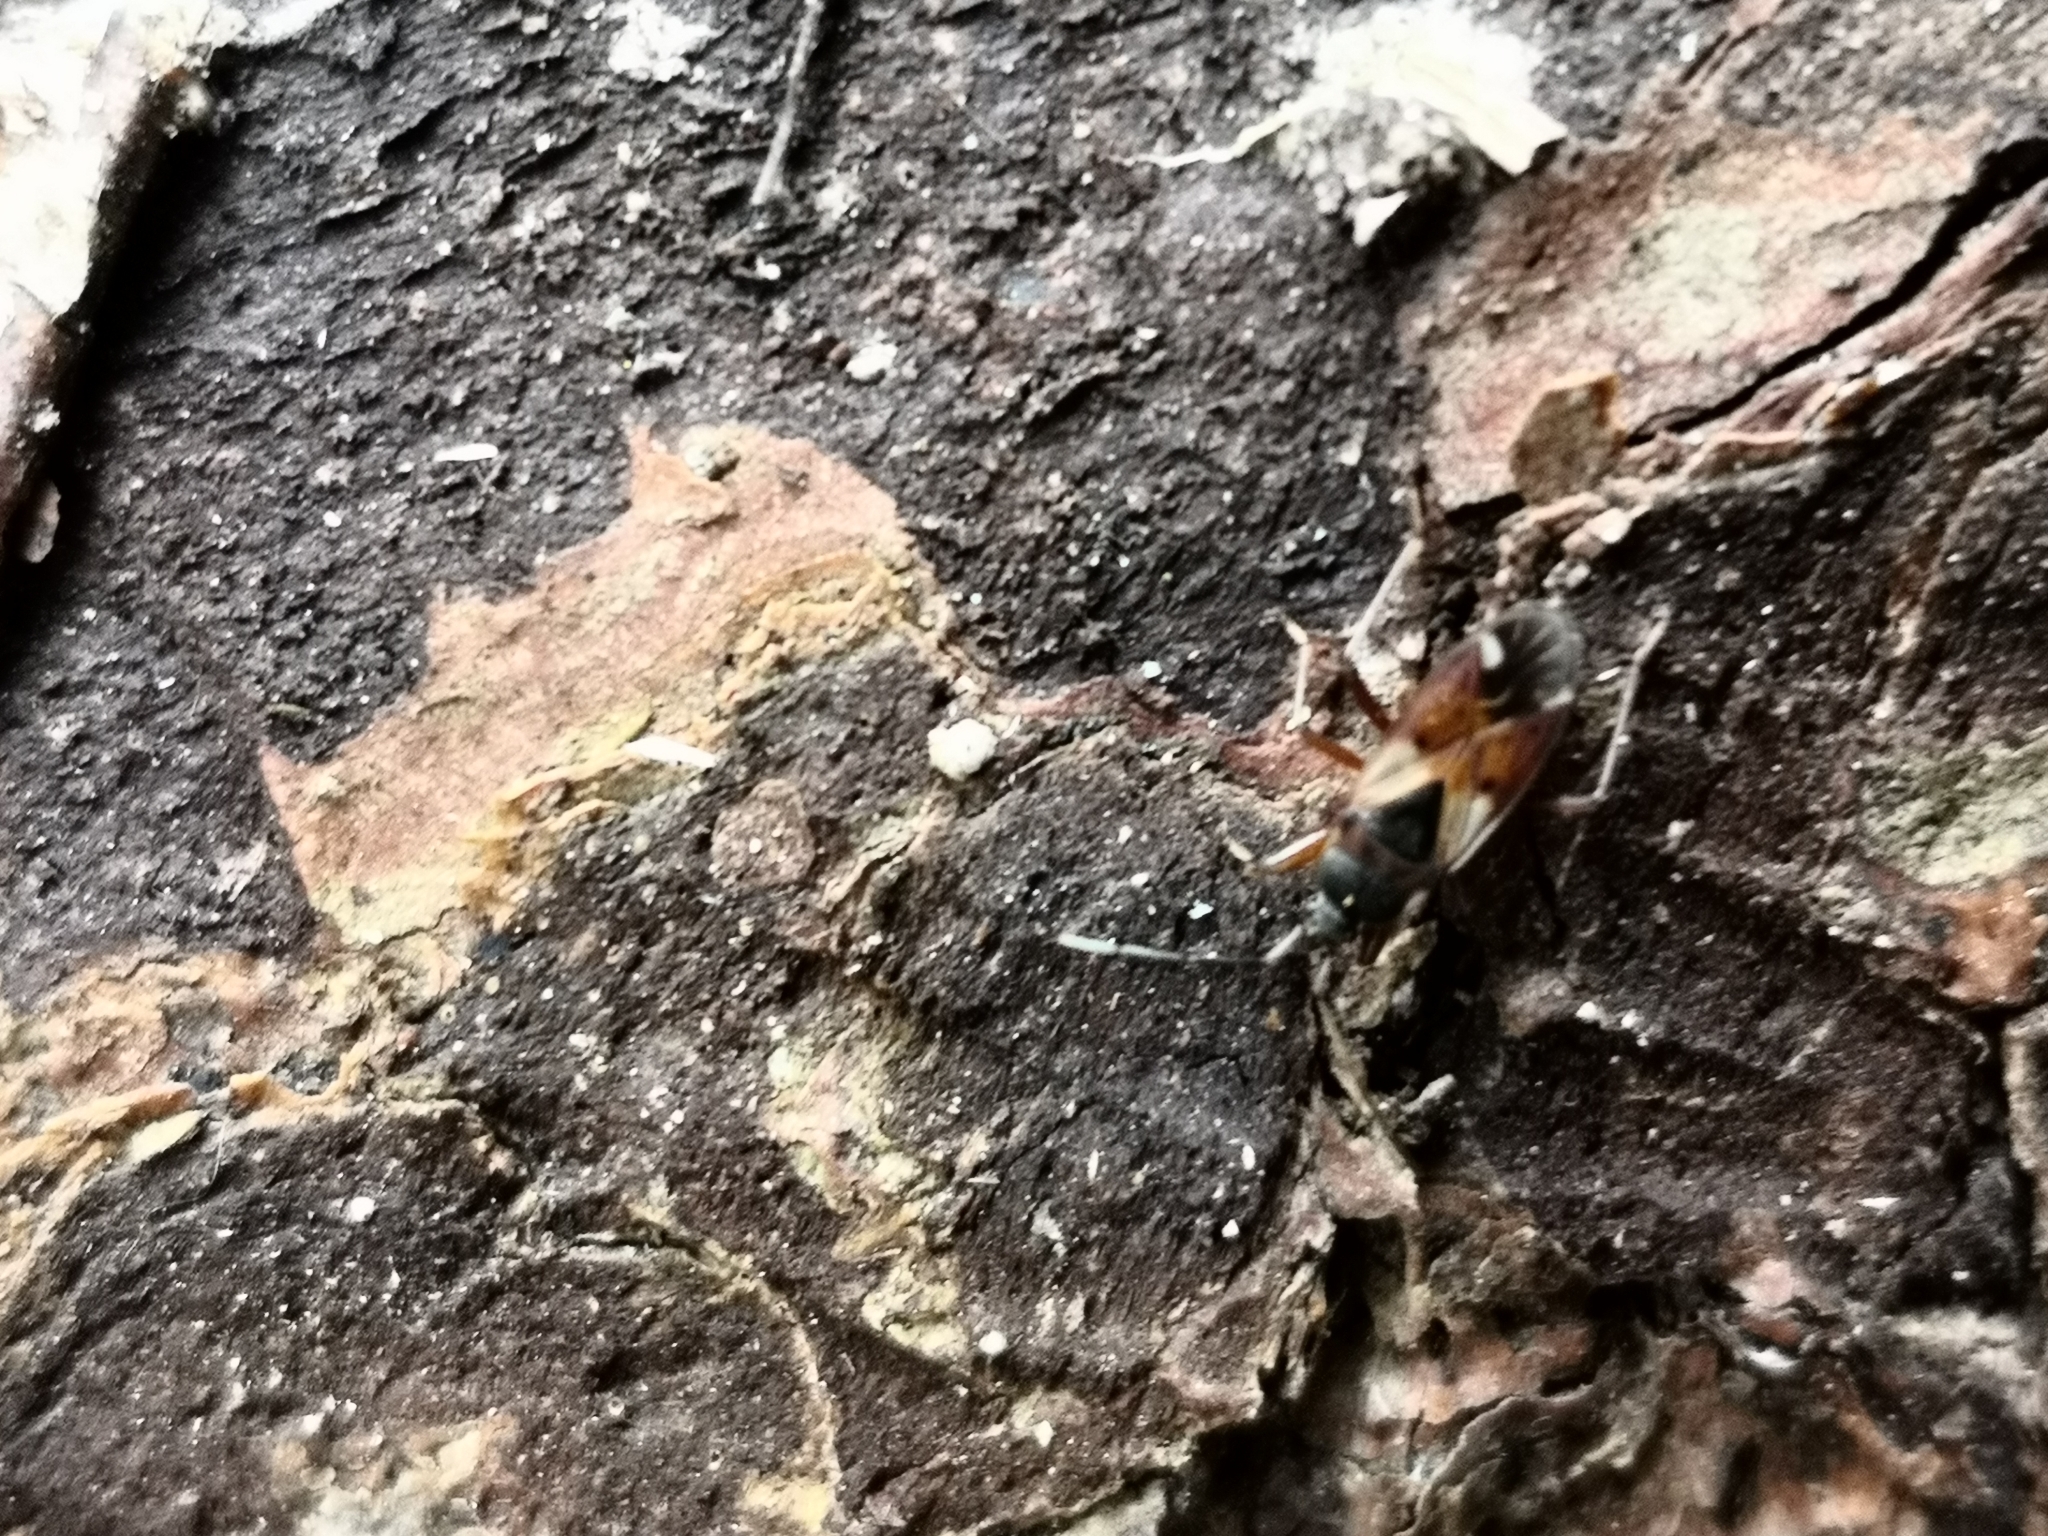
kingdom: Animalia
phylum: Arthropoda
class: Insecta
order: Hemiptera
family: Rhyparochromidae
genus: Eremocoris
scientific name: Eremocoris abietis
